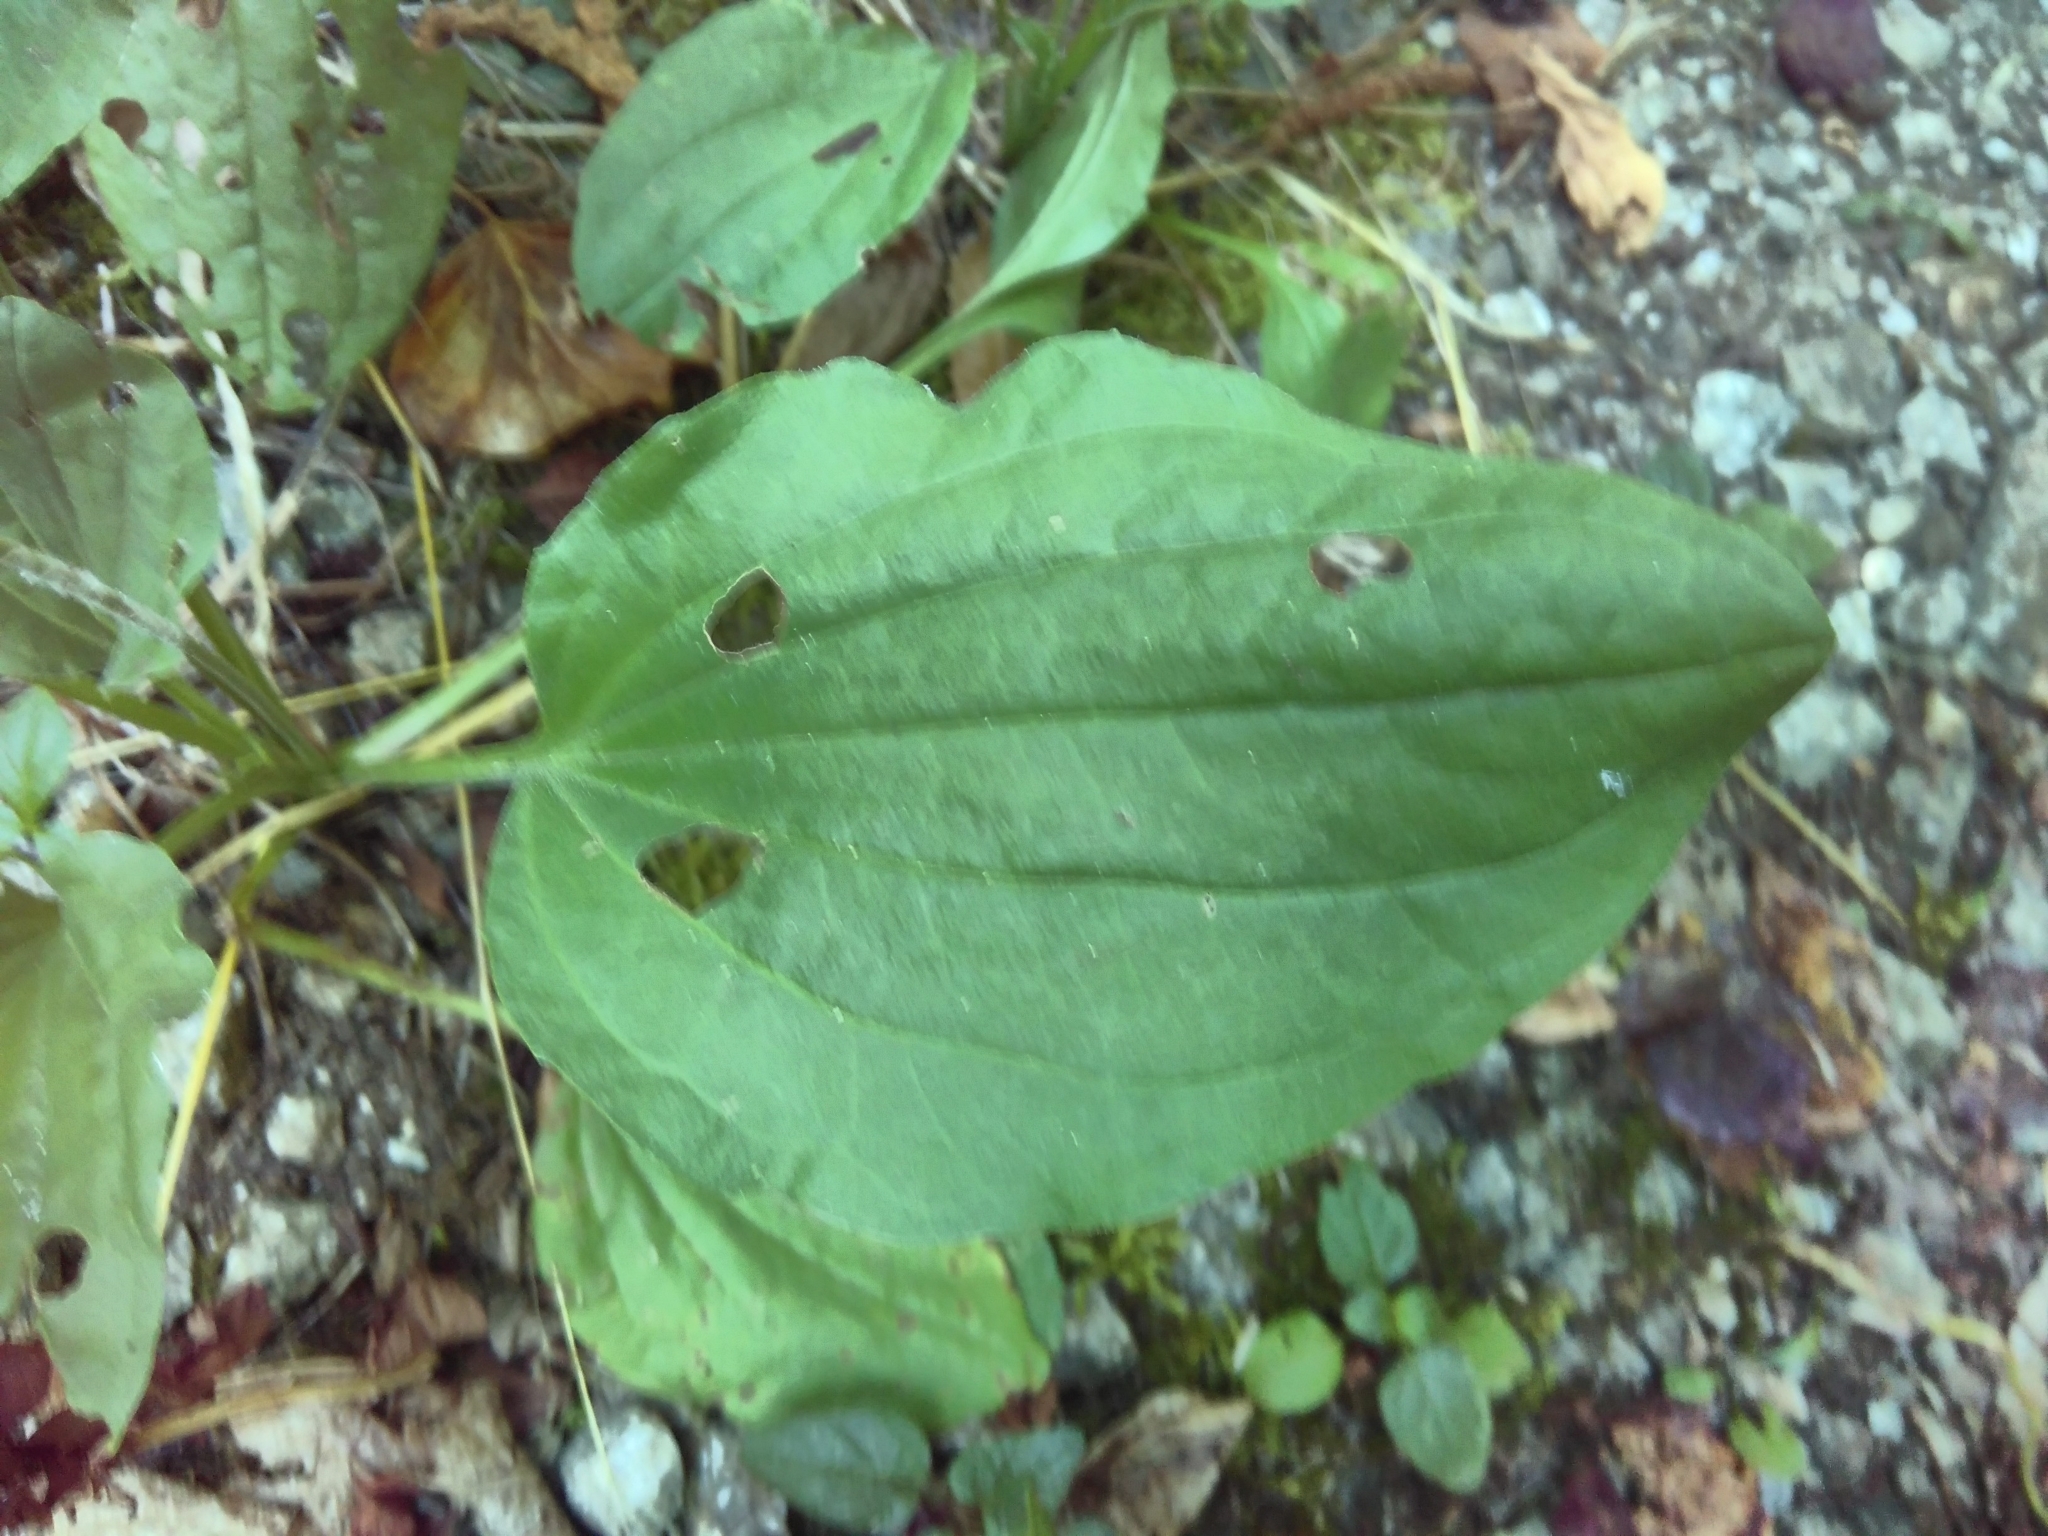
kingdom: Plantae
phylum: Tracheophyta
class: Magnoliopsida
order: Lamiales
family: Plantaginaceae
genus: Plantago
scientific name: Plantago major
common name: Common plantain
